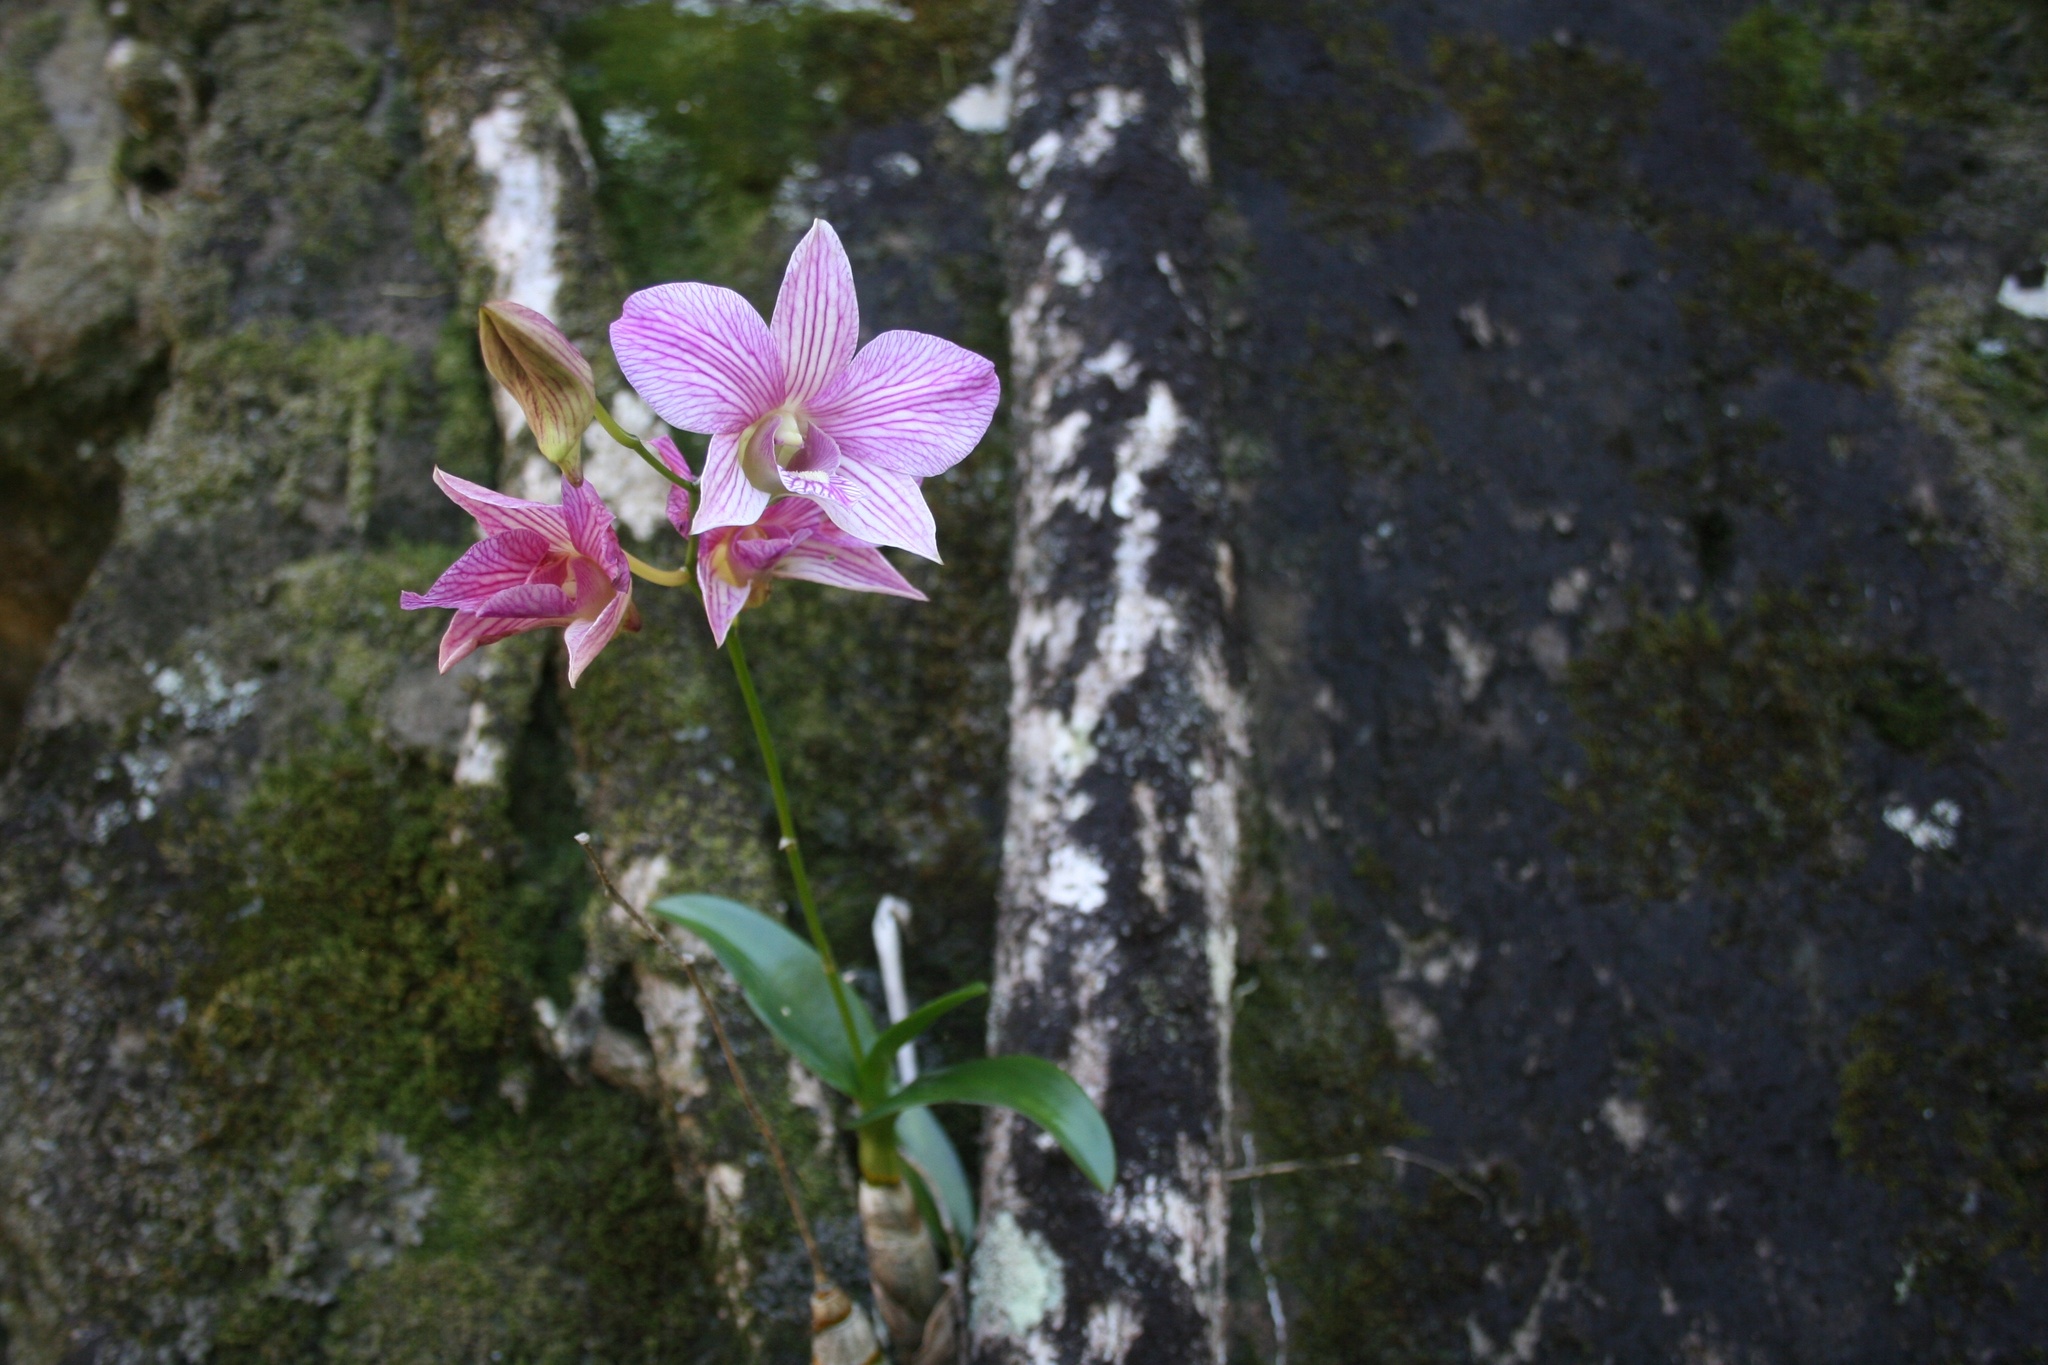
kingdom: Plantae
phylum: Tracheophyta
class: Liliopsida
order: Asparagales
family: Orchidaceae
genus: Spathoglottis
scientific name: Spathoglottis plicata
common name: Philippine ground orchid
